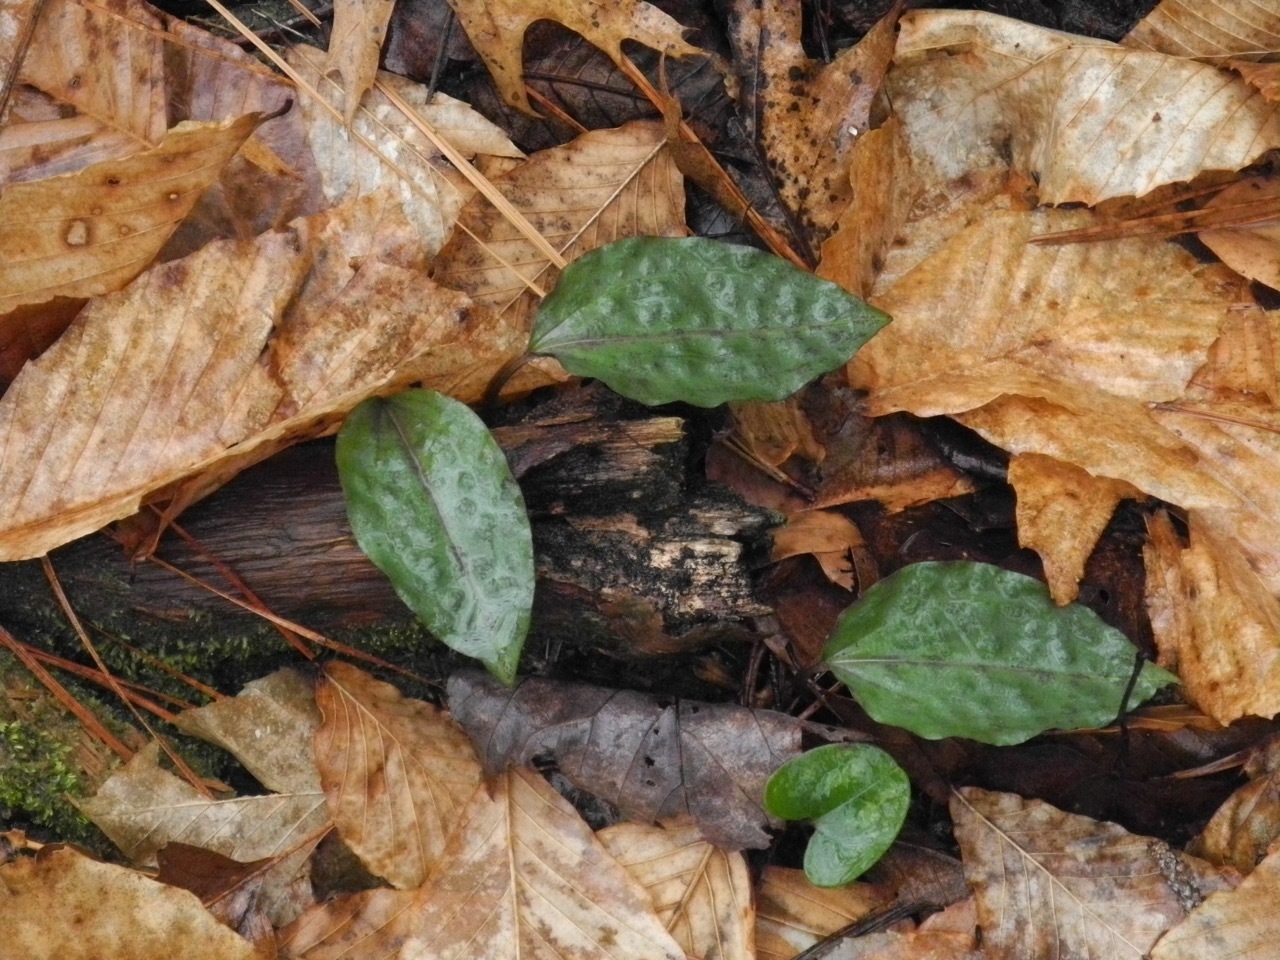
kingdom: Plantae
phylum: Tracheophyta
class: Liliopsida
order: Asparagales
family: Orchidaceae
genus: Tipularia
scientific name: Tipularia discolor
